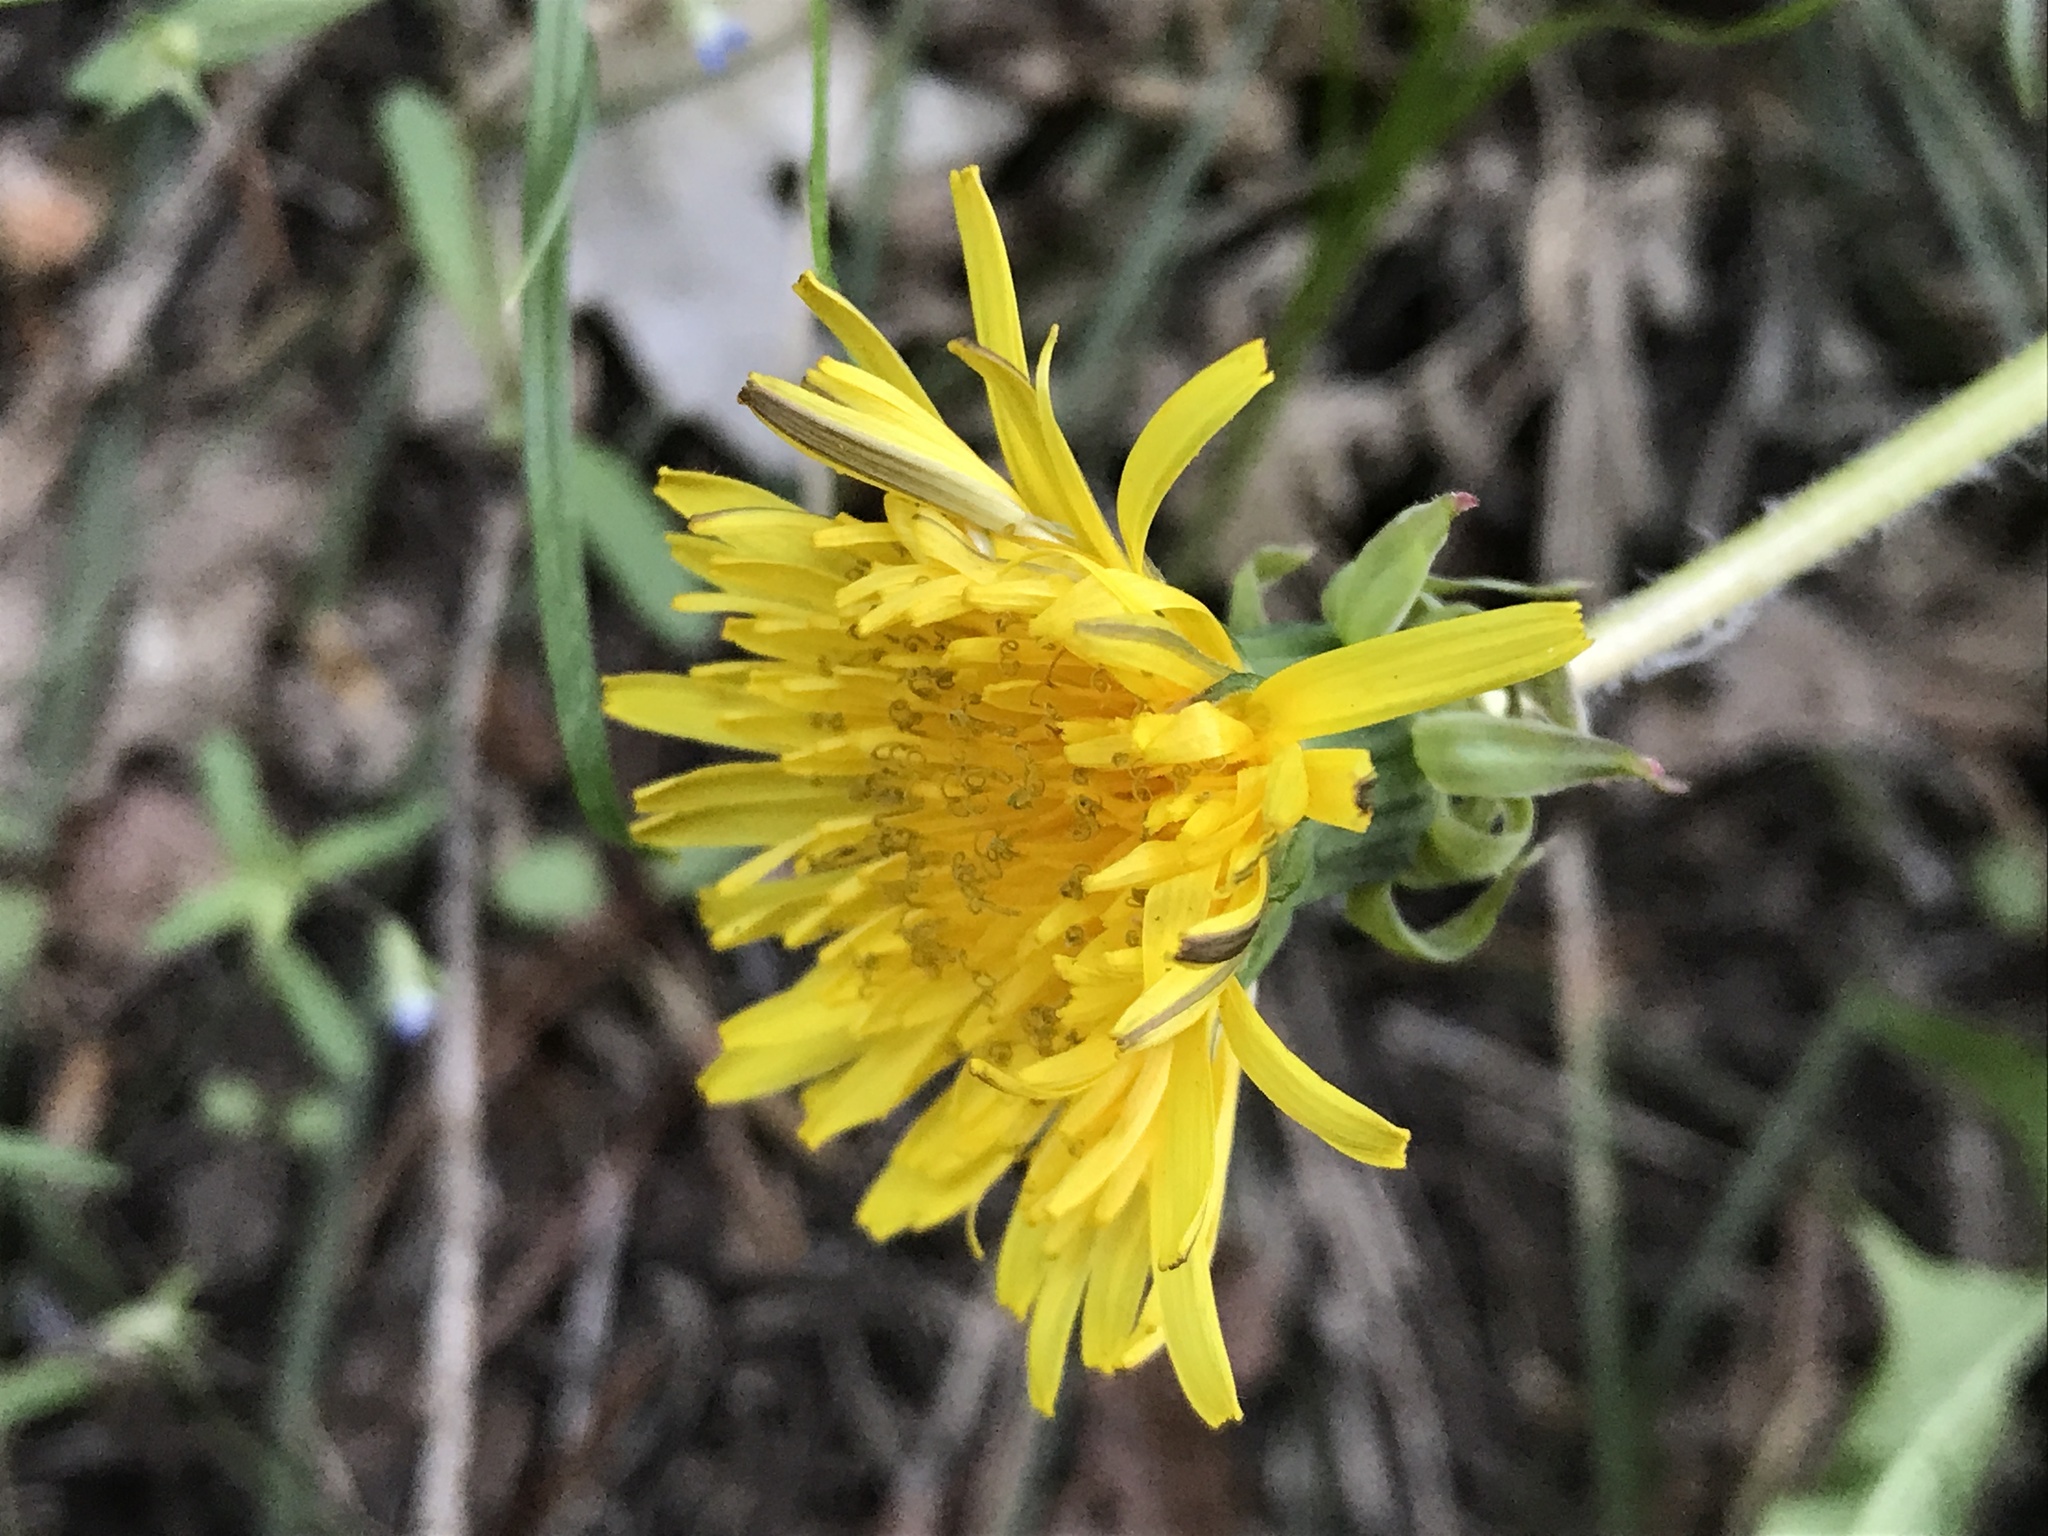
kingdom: Plantae
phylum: Tracheophyta
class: Magnoliopsida
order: Asterales
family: Asteraceae
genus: Taraxacum
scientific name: Taraxacum officinale
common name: Common dandelion
